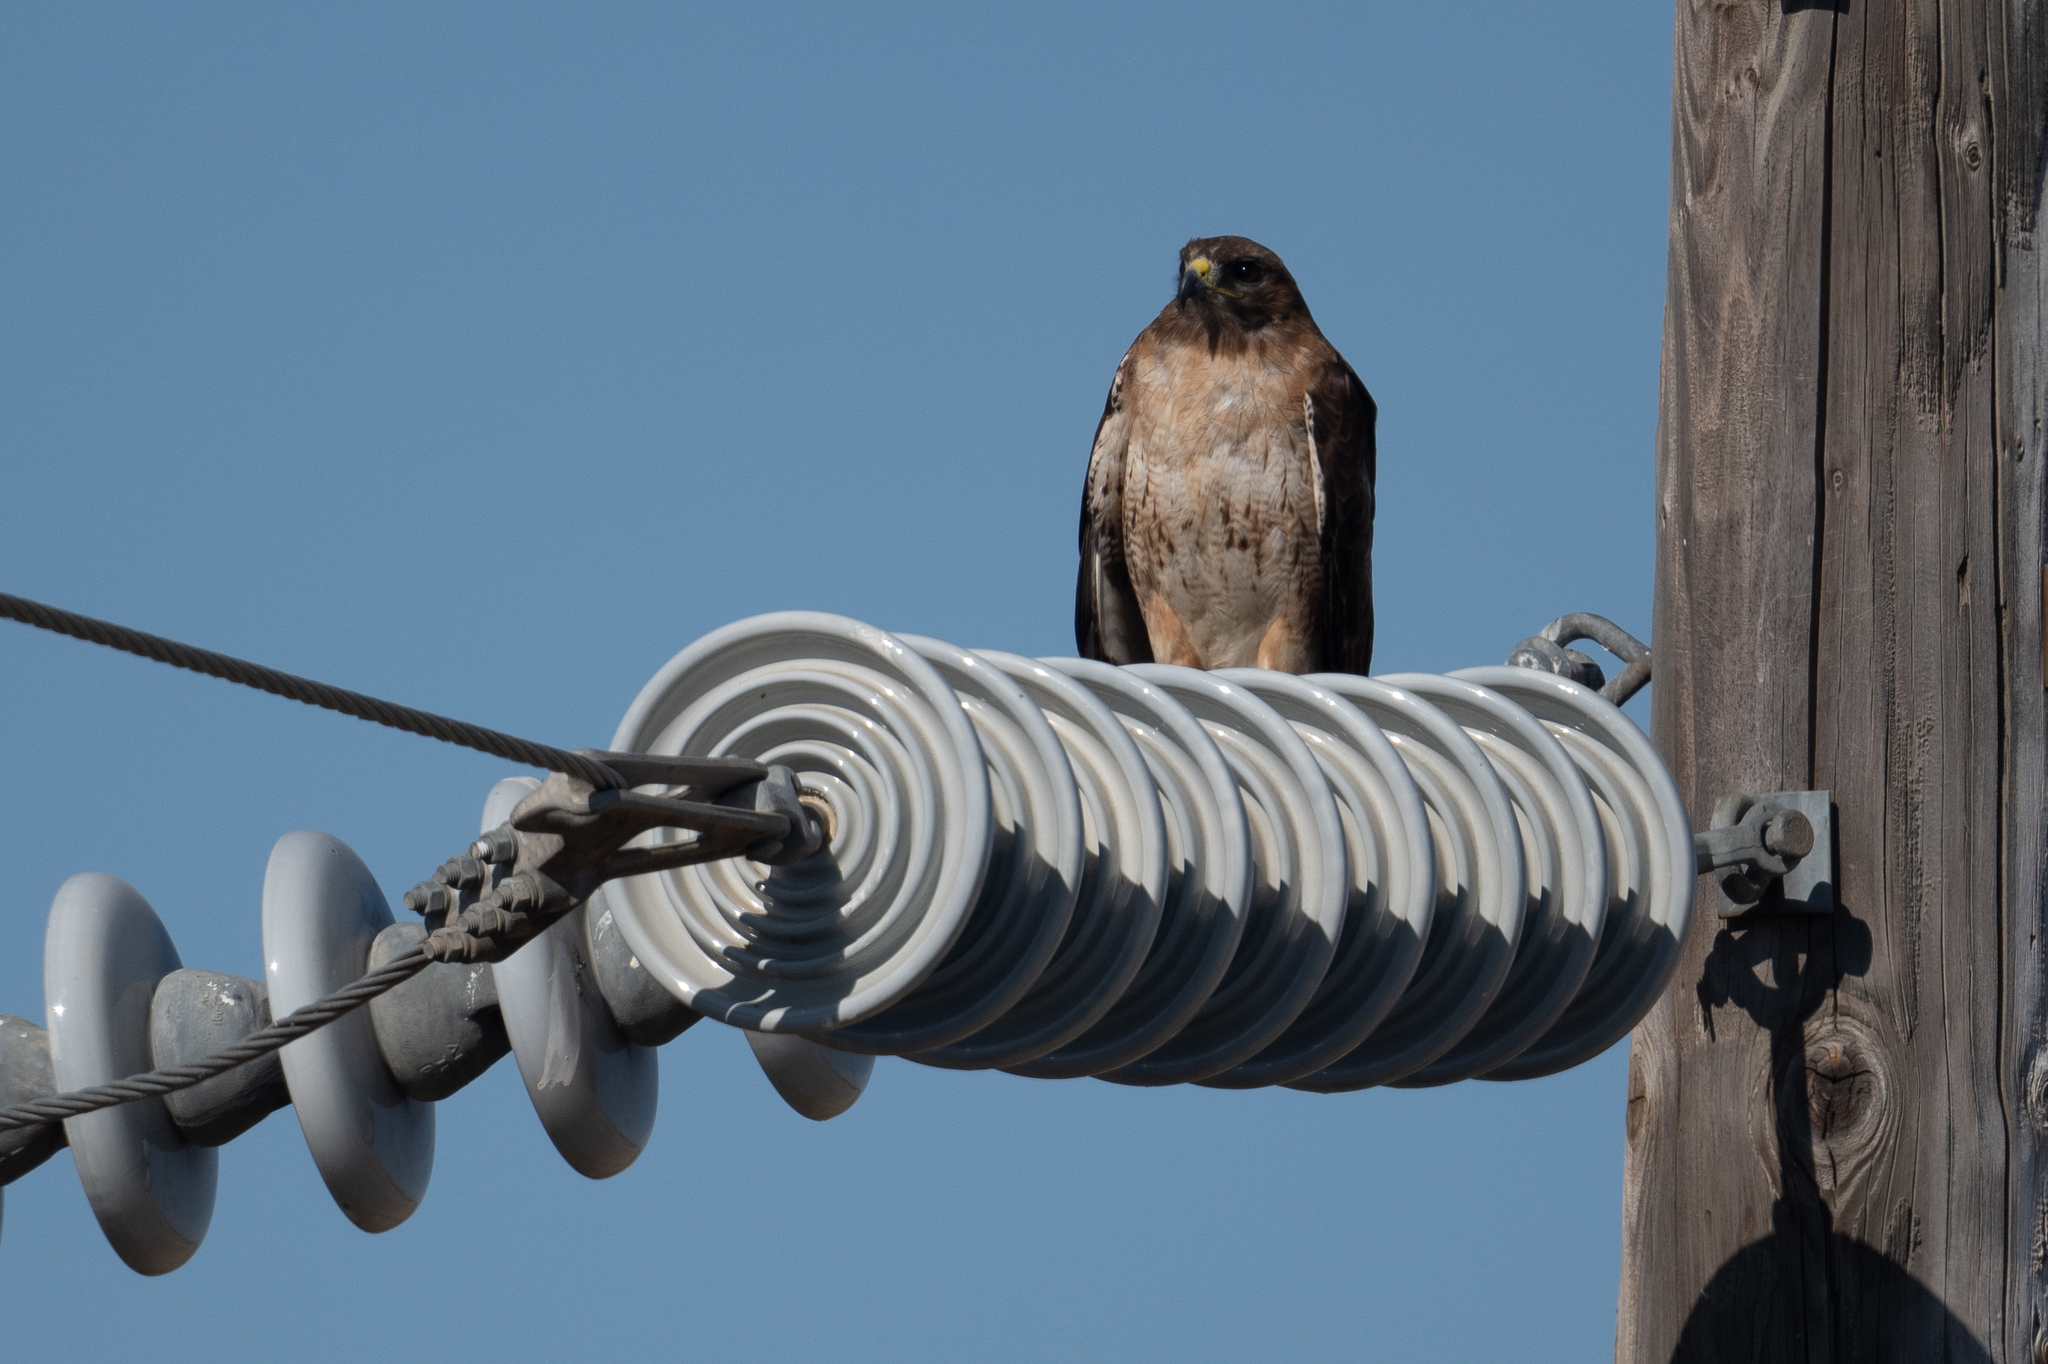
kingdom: Animalia
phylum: Chordata
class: Aves
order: Accipitriformes
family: Accipitridae
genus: Buteo
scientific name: Buteo jamaicensis
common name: Red-tailed hawk
